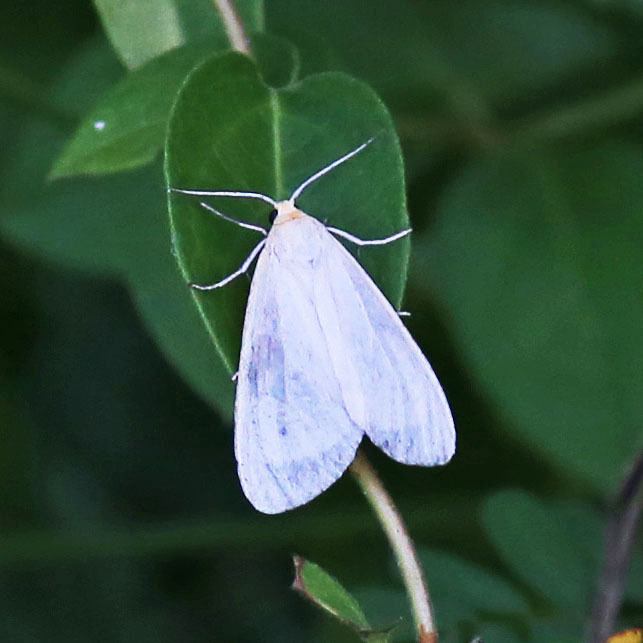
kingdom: Animalia
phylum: Arthropoda
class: Insecta
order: Lepidoptera
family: Erebidae
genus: Cycnia
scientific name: Cycnia oregonensis
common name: Oregon cycnia moth
